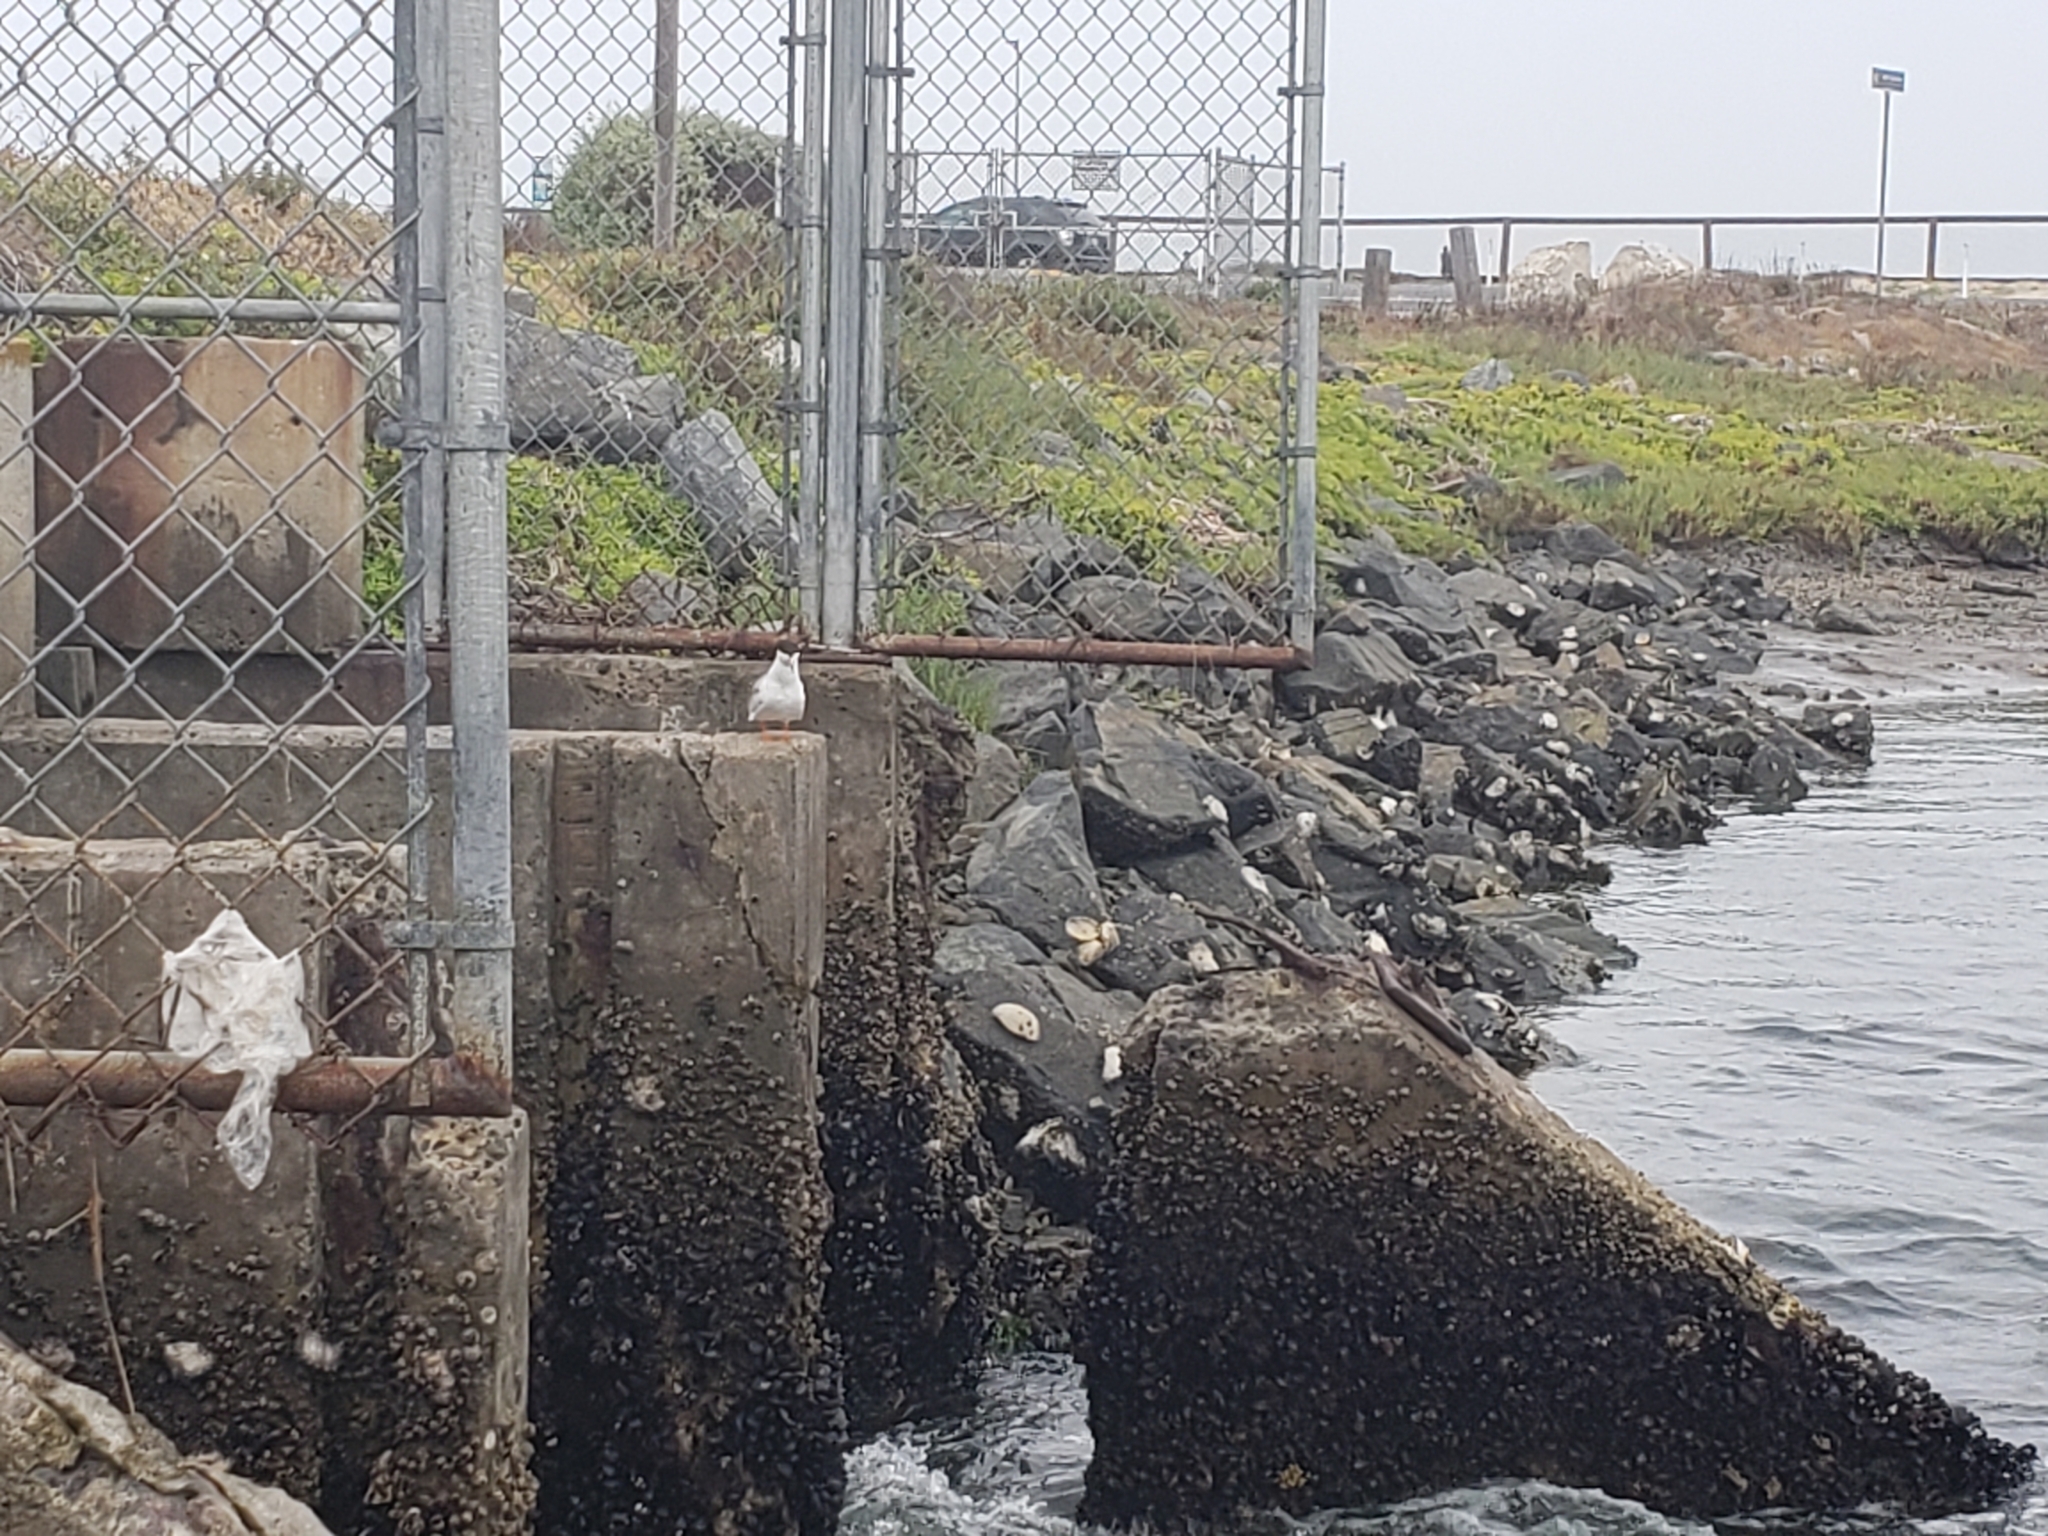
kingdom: Animalia
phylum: Chordata
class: Aves
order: Charadriiformes
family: Laridae
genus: Sterna
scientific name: Sterna forsteri
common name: Forster's tern
